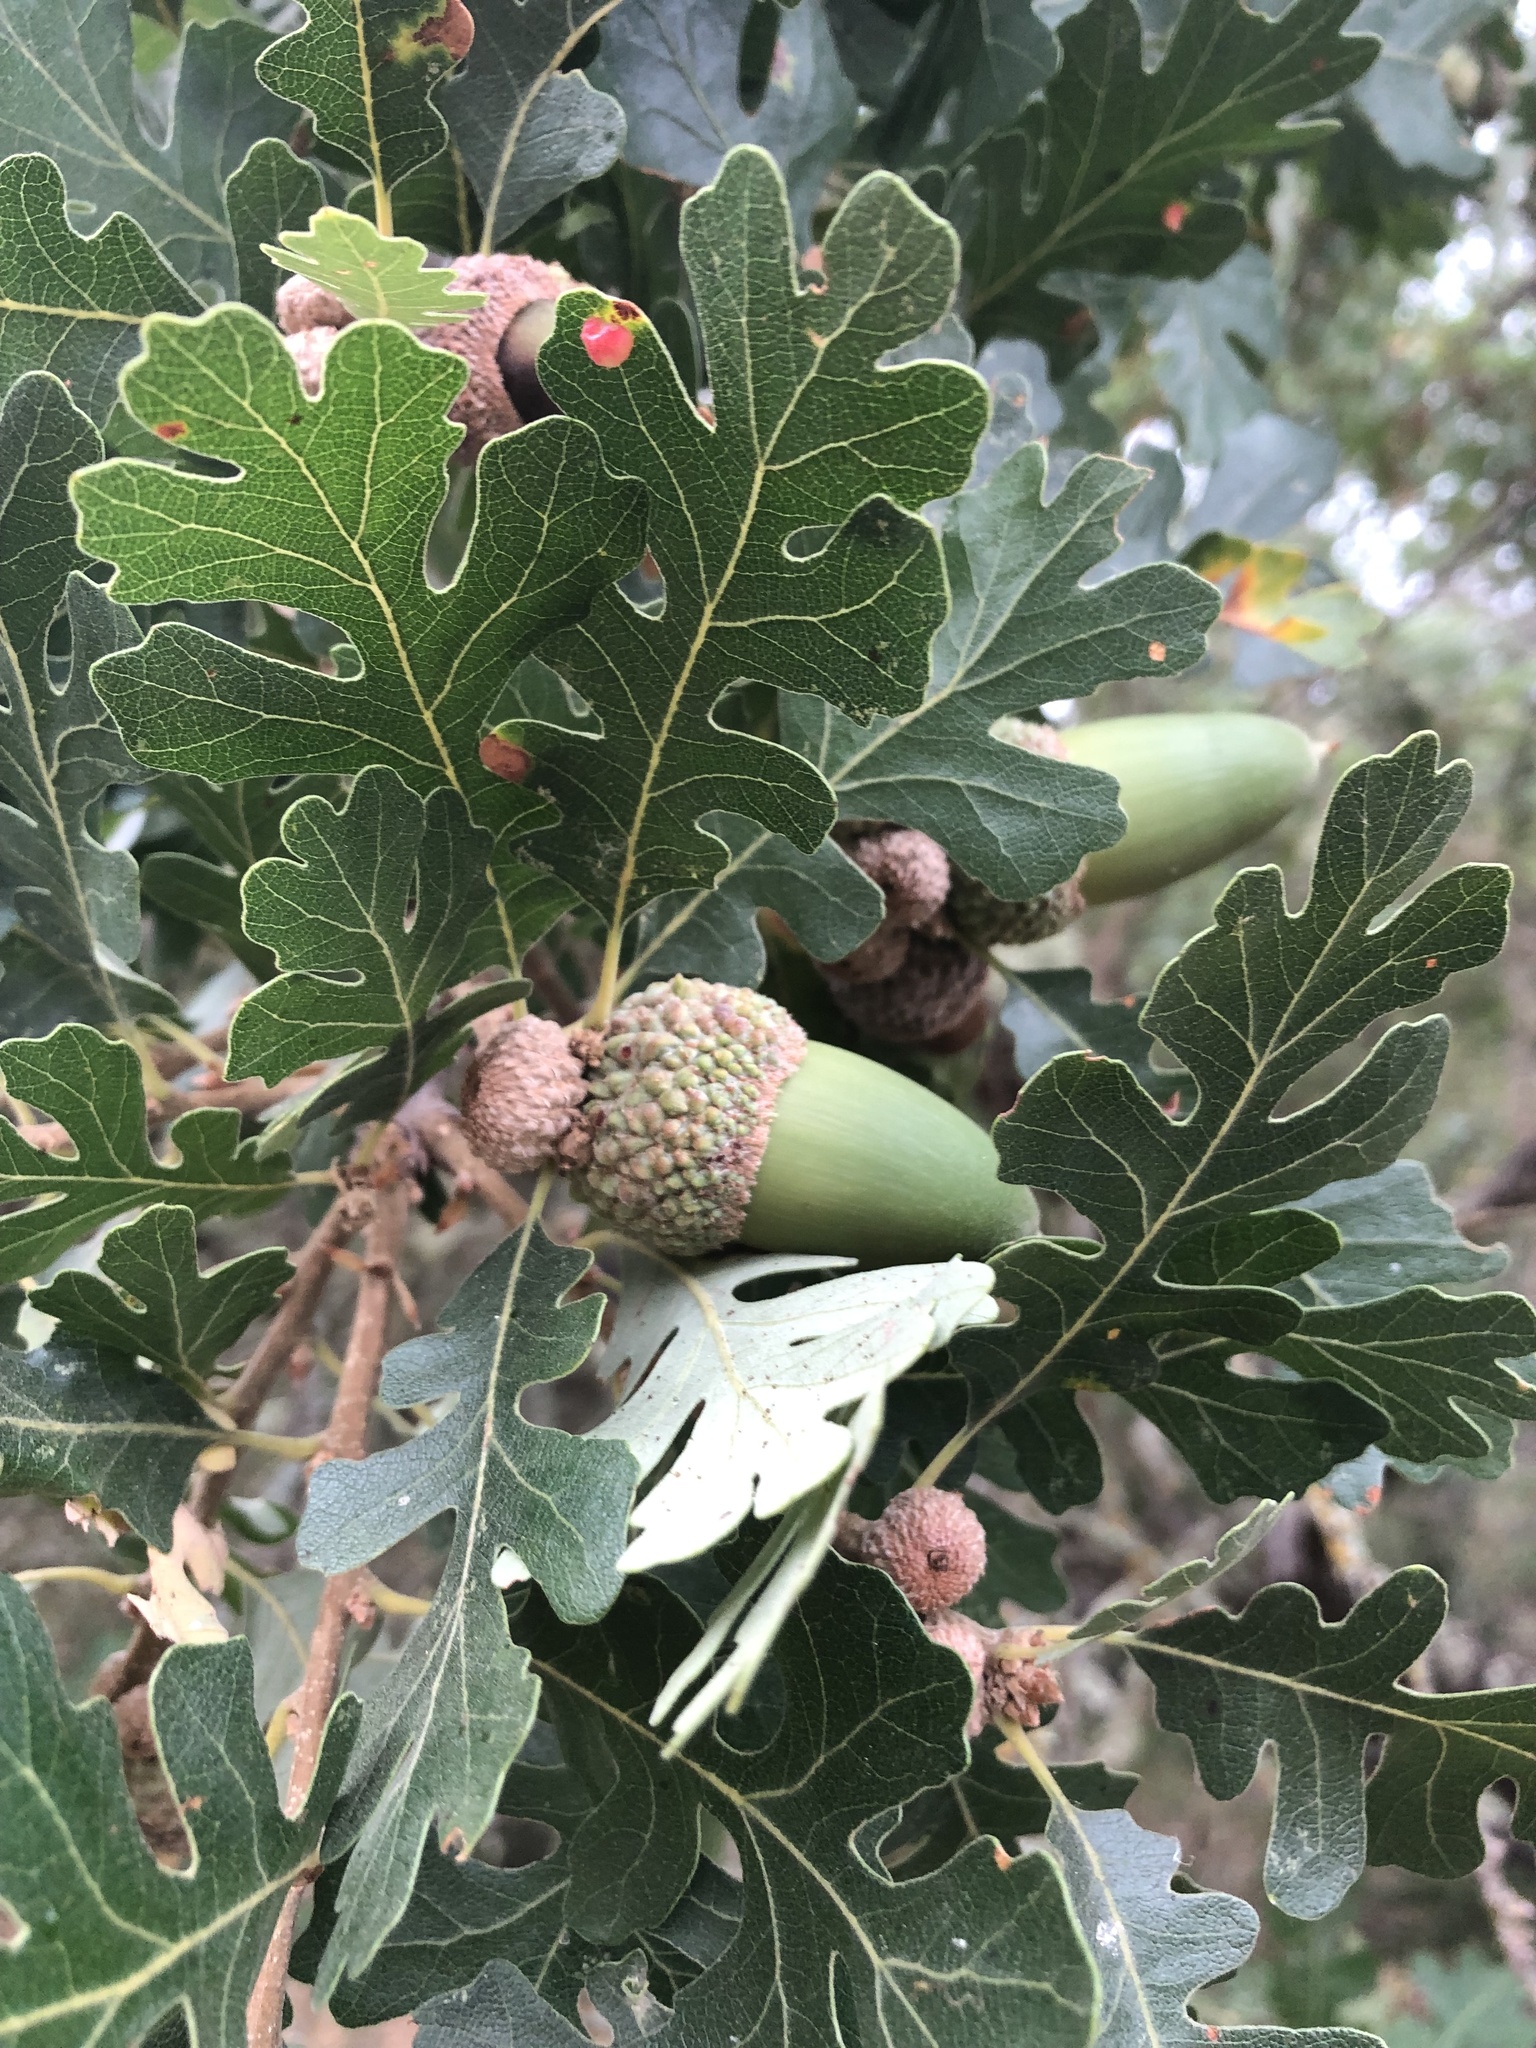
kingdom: Plantae
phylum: Tracheophyta
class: Magnoliopsida
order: Fagales
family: Fagaceae
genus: Quercus
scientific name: Quercus lobata
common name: Valley oak
